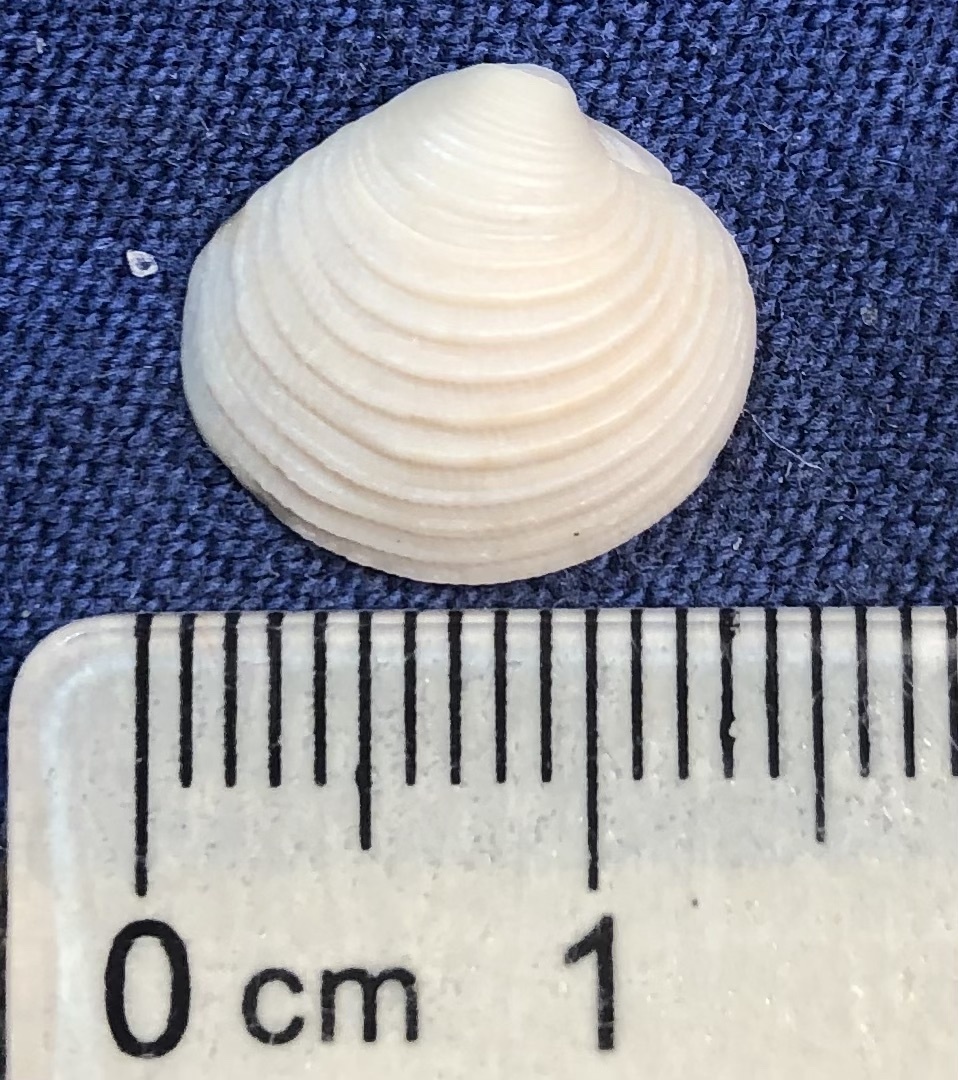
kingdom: Animalia
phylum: Mollusca
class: Bivalvia
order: Venerida
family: Veneridae
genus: Chionopsis
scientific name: Chionopsis intapurpurea
